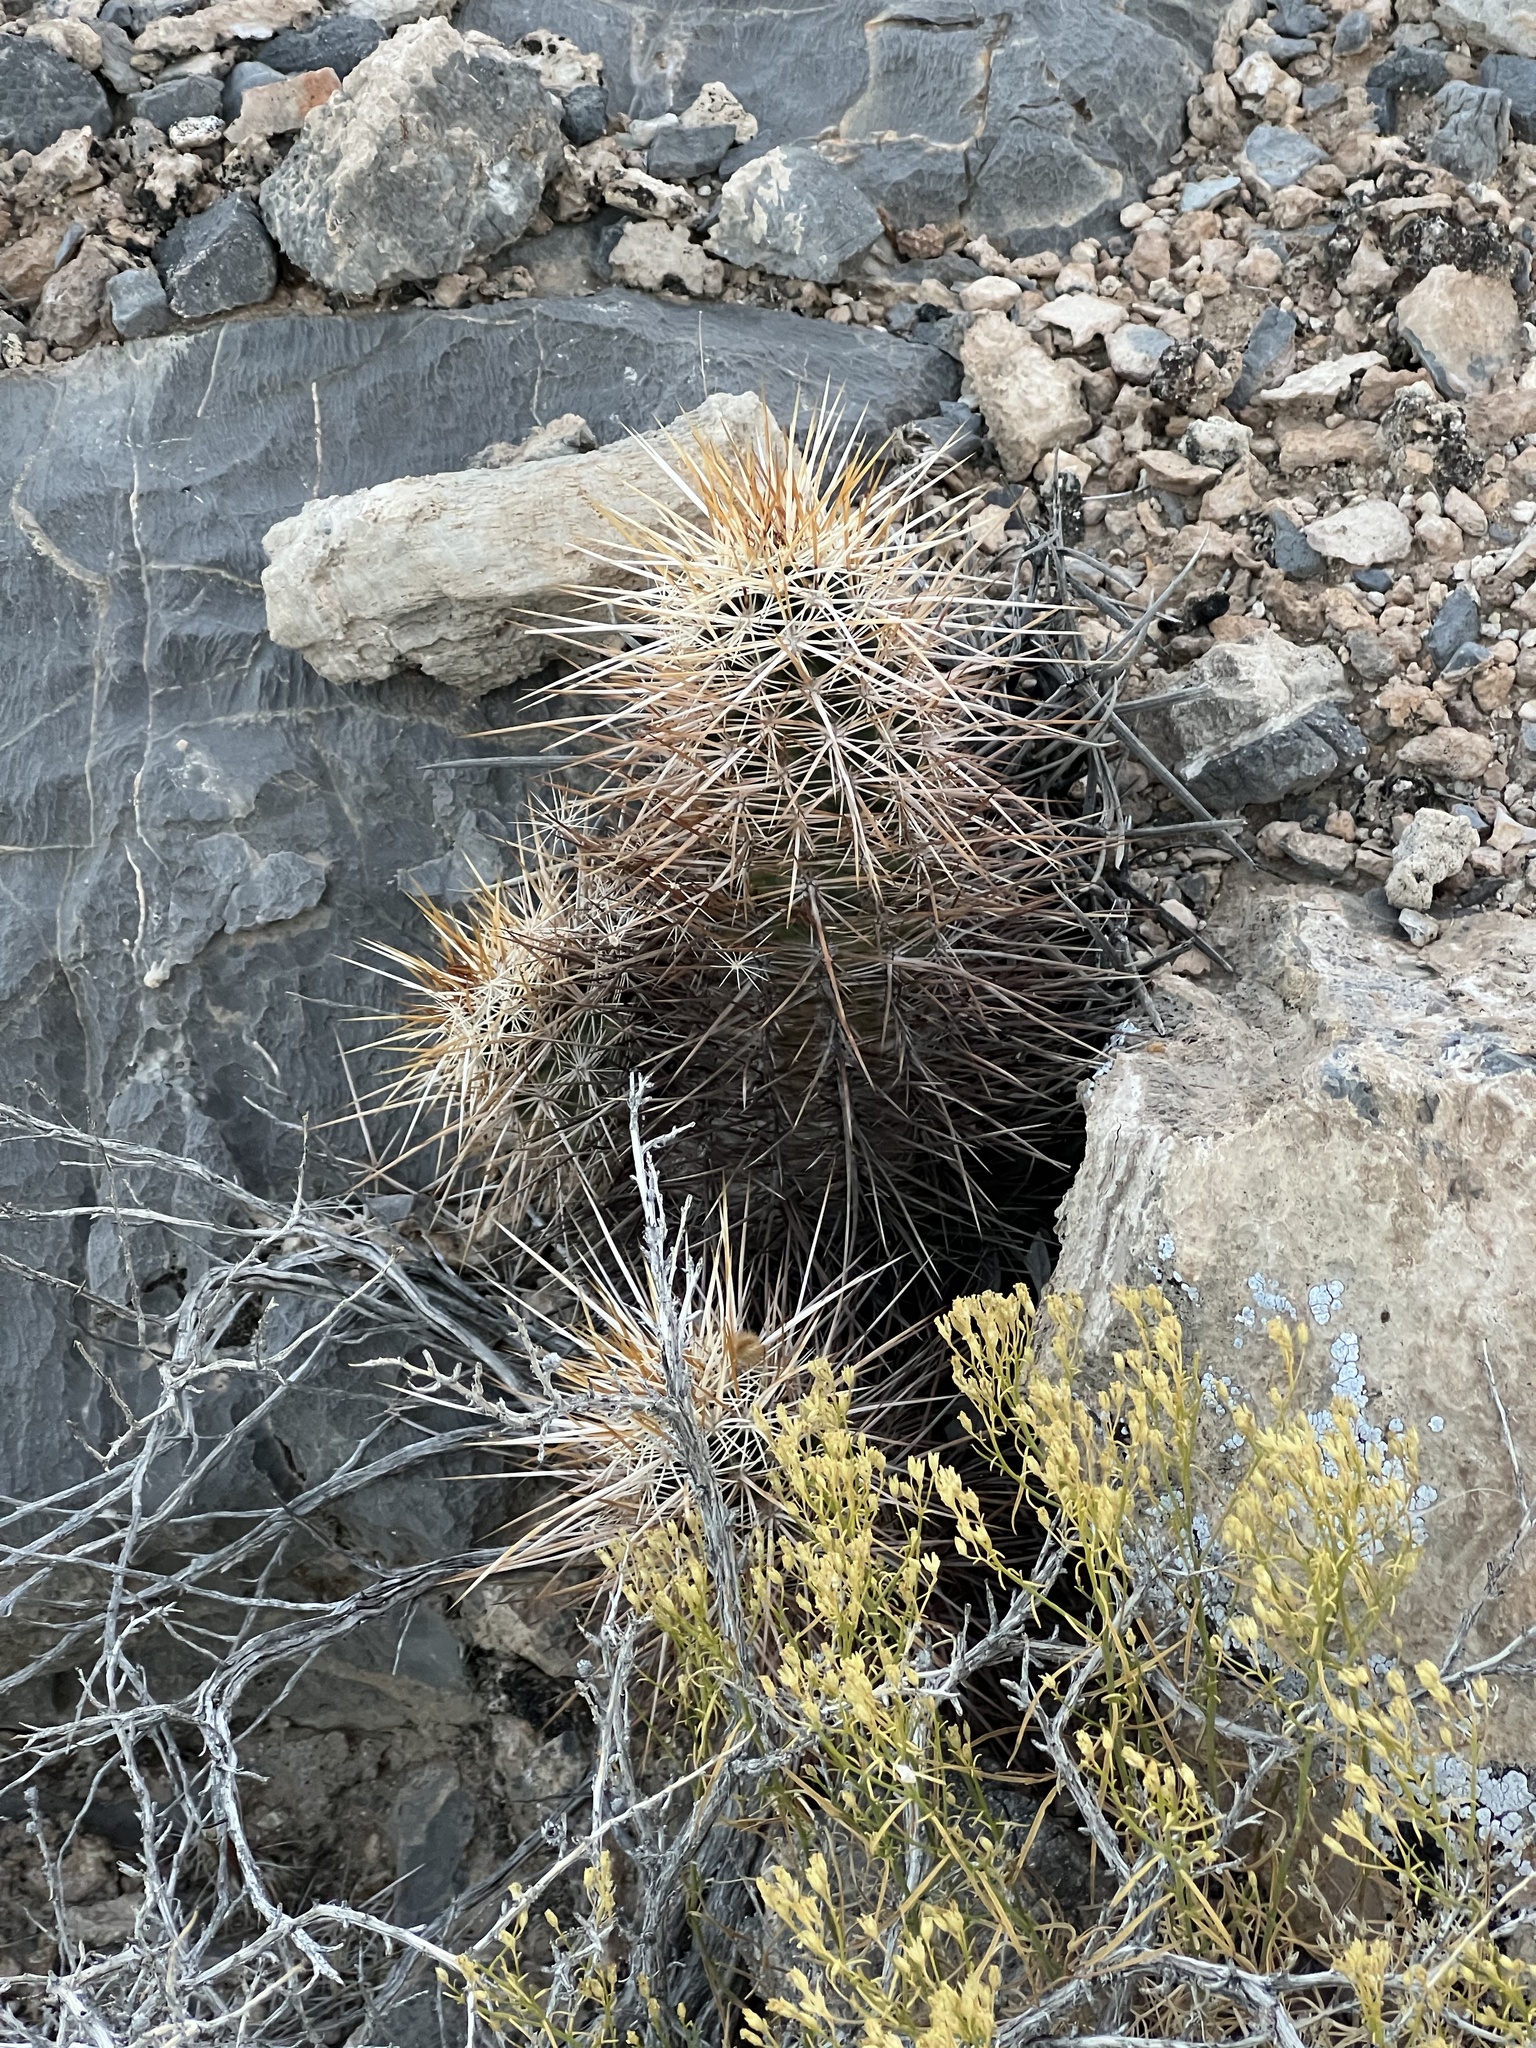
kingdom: Plantae
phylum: Tracheophyta
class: Magnoliopsida
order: Caryophyllales
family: Cactaceae
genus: Echinocereus
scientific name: Echinocereus engelmannii
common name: Engelmann's hedgehog cactus
